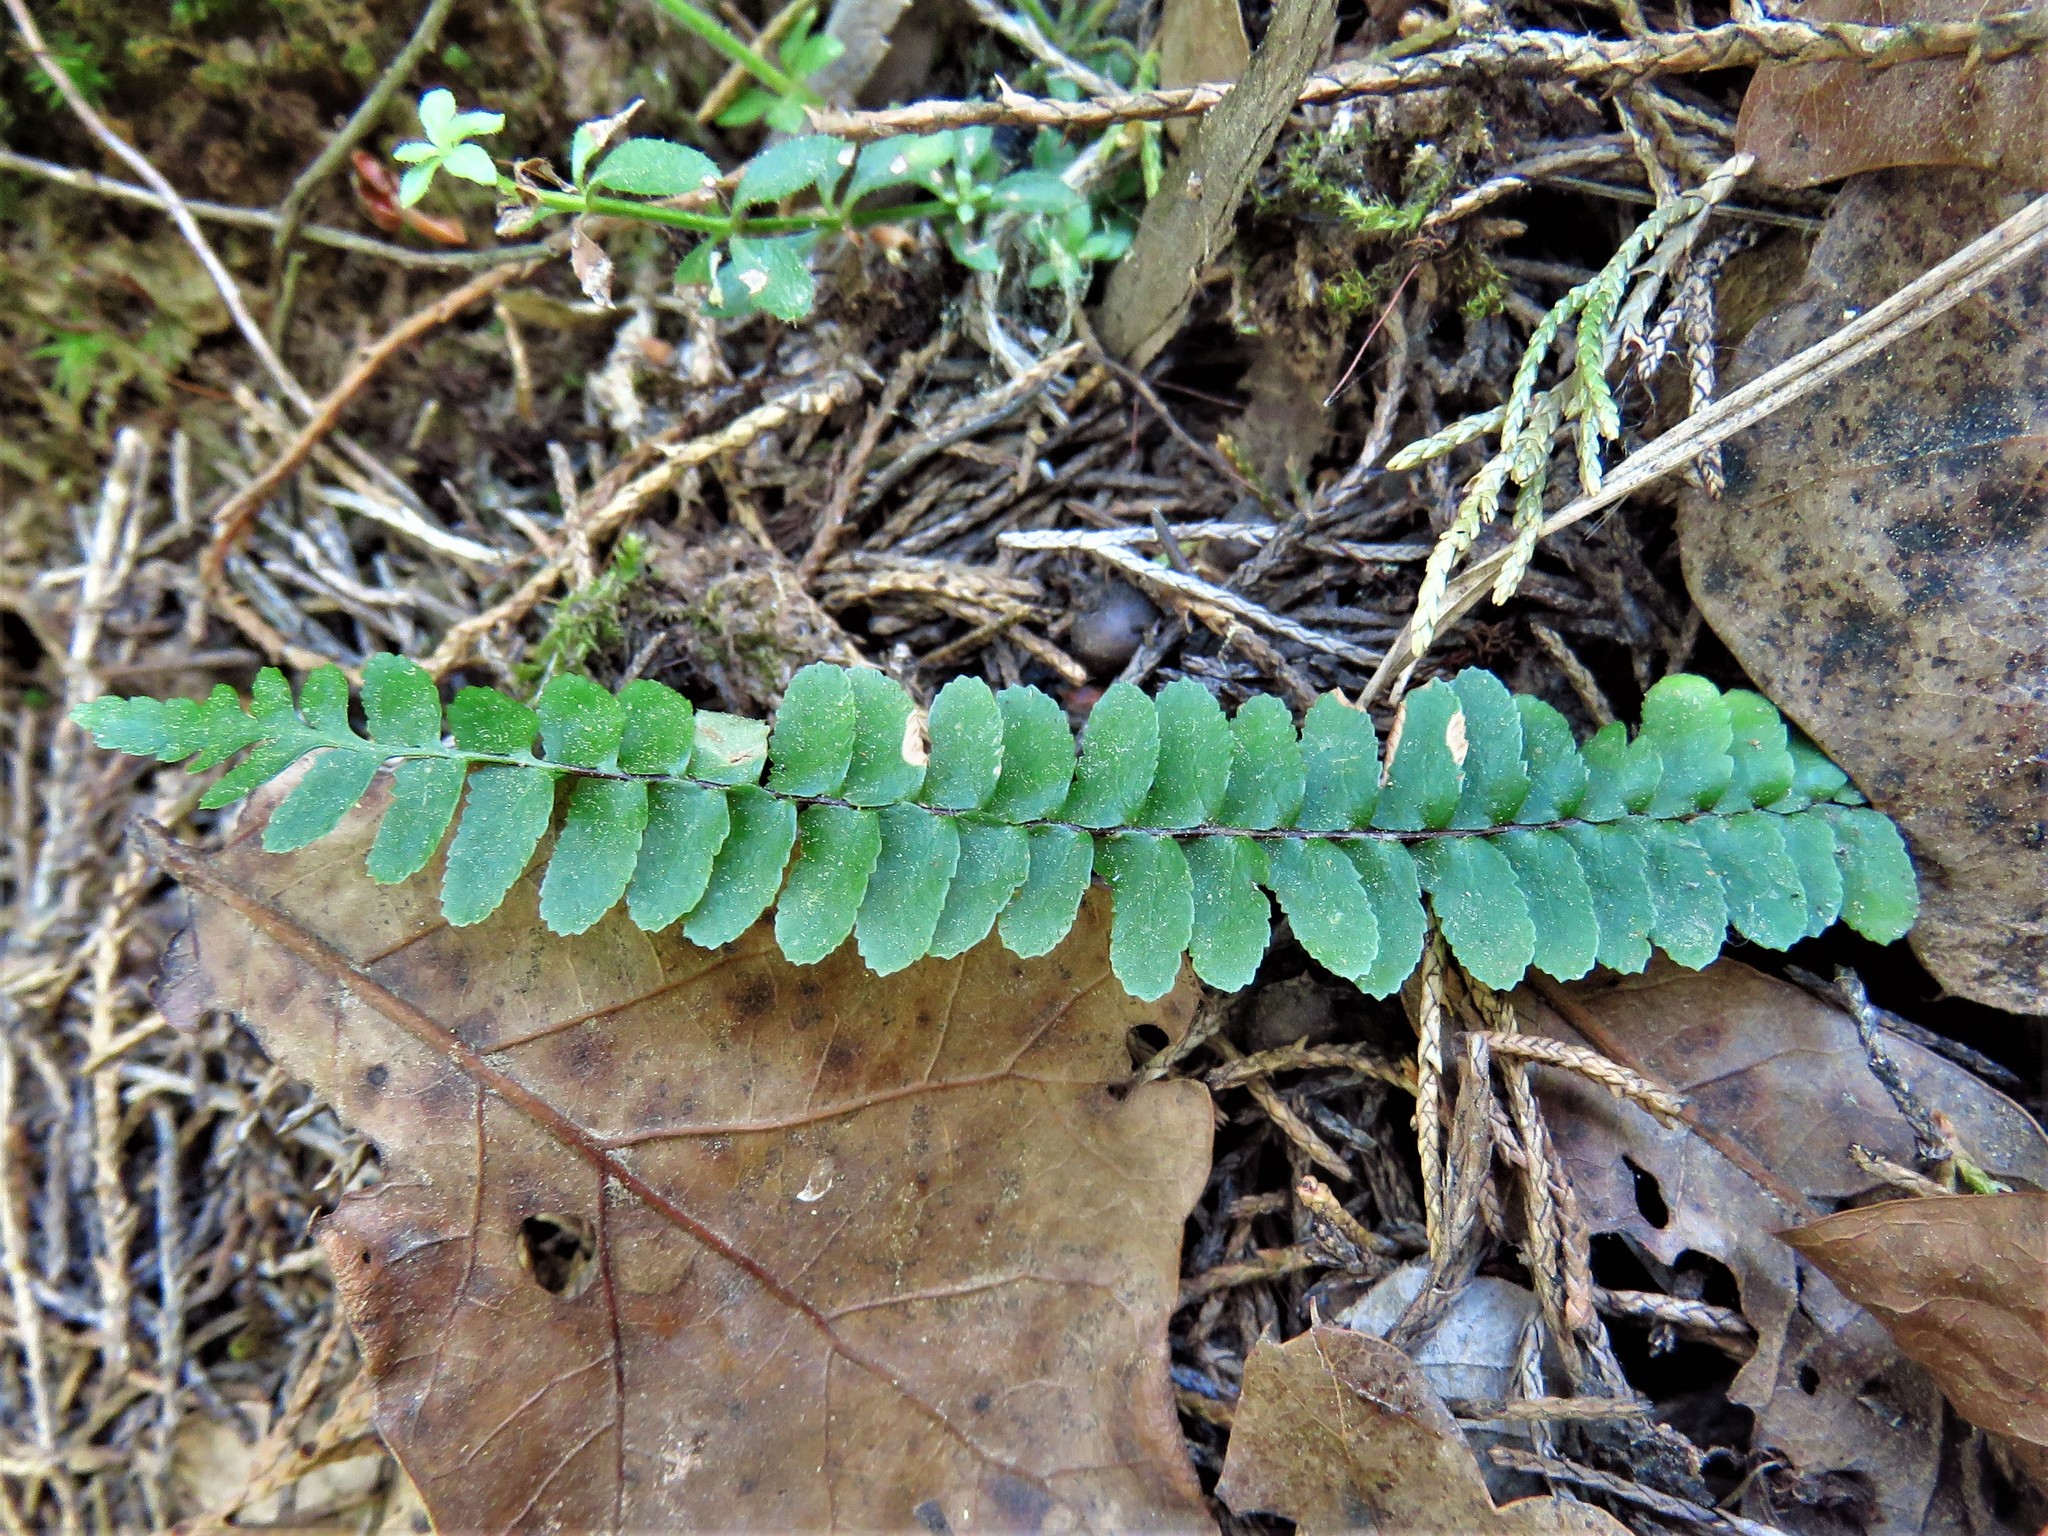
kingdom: Plantae
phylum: Tracheophyta
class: Polypodiopsida
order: Polypodiales
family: Aspleniaceae
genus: Asplenium
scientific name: Asplenium platyneuron
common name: Ebony spleenwort
